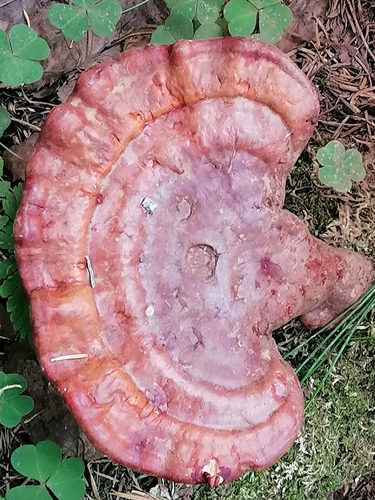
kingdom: Fungi
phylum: Basidiomycota
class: Agaricomycetes
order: Polyporales
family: Polyporaceae
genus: Ganoderma
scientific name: Ganoderma lucidum
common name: Lacquered bracket
